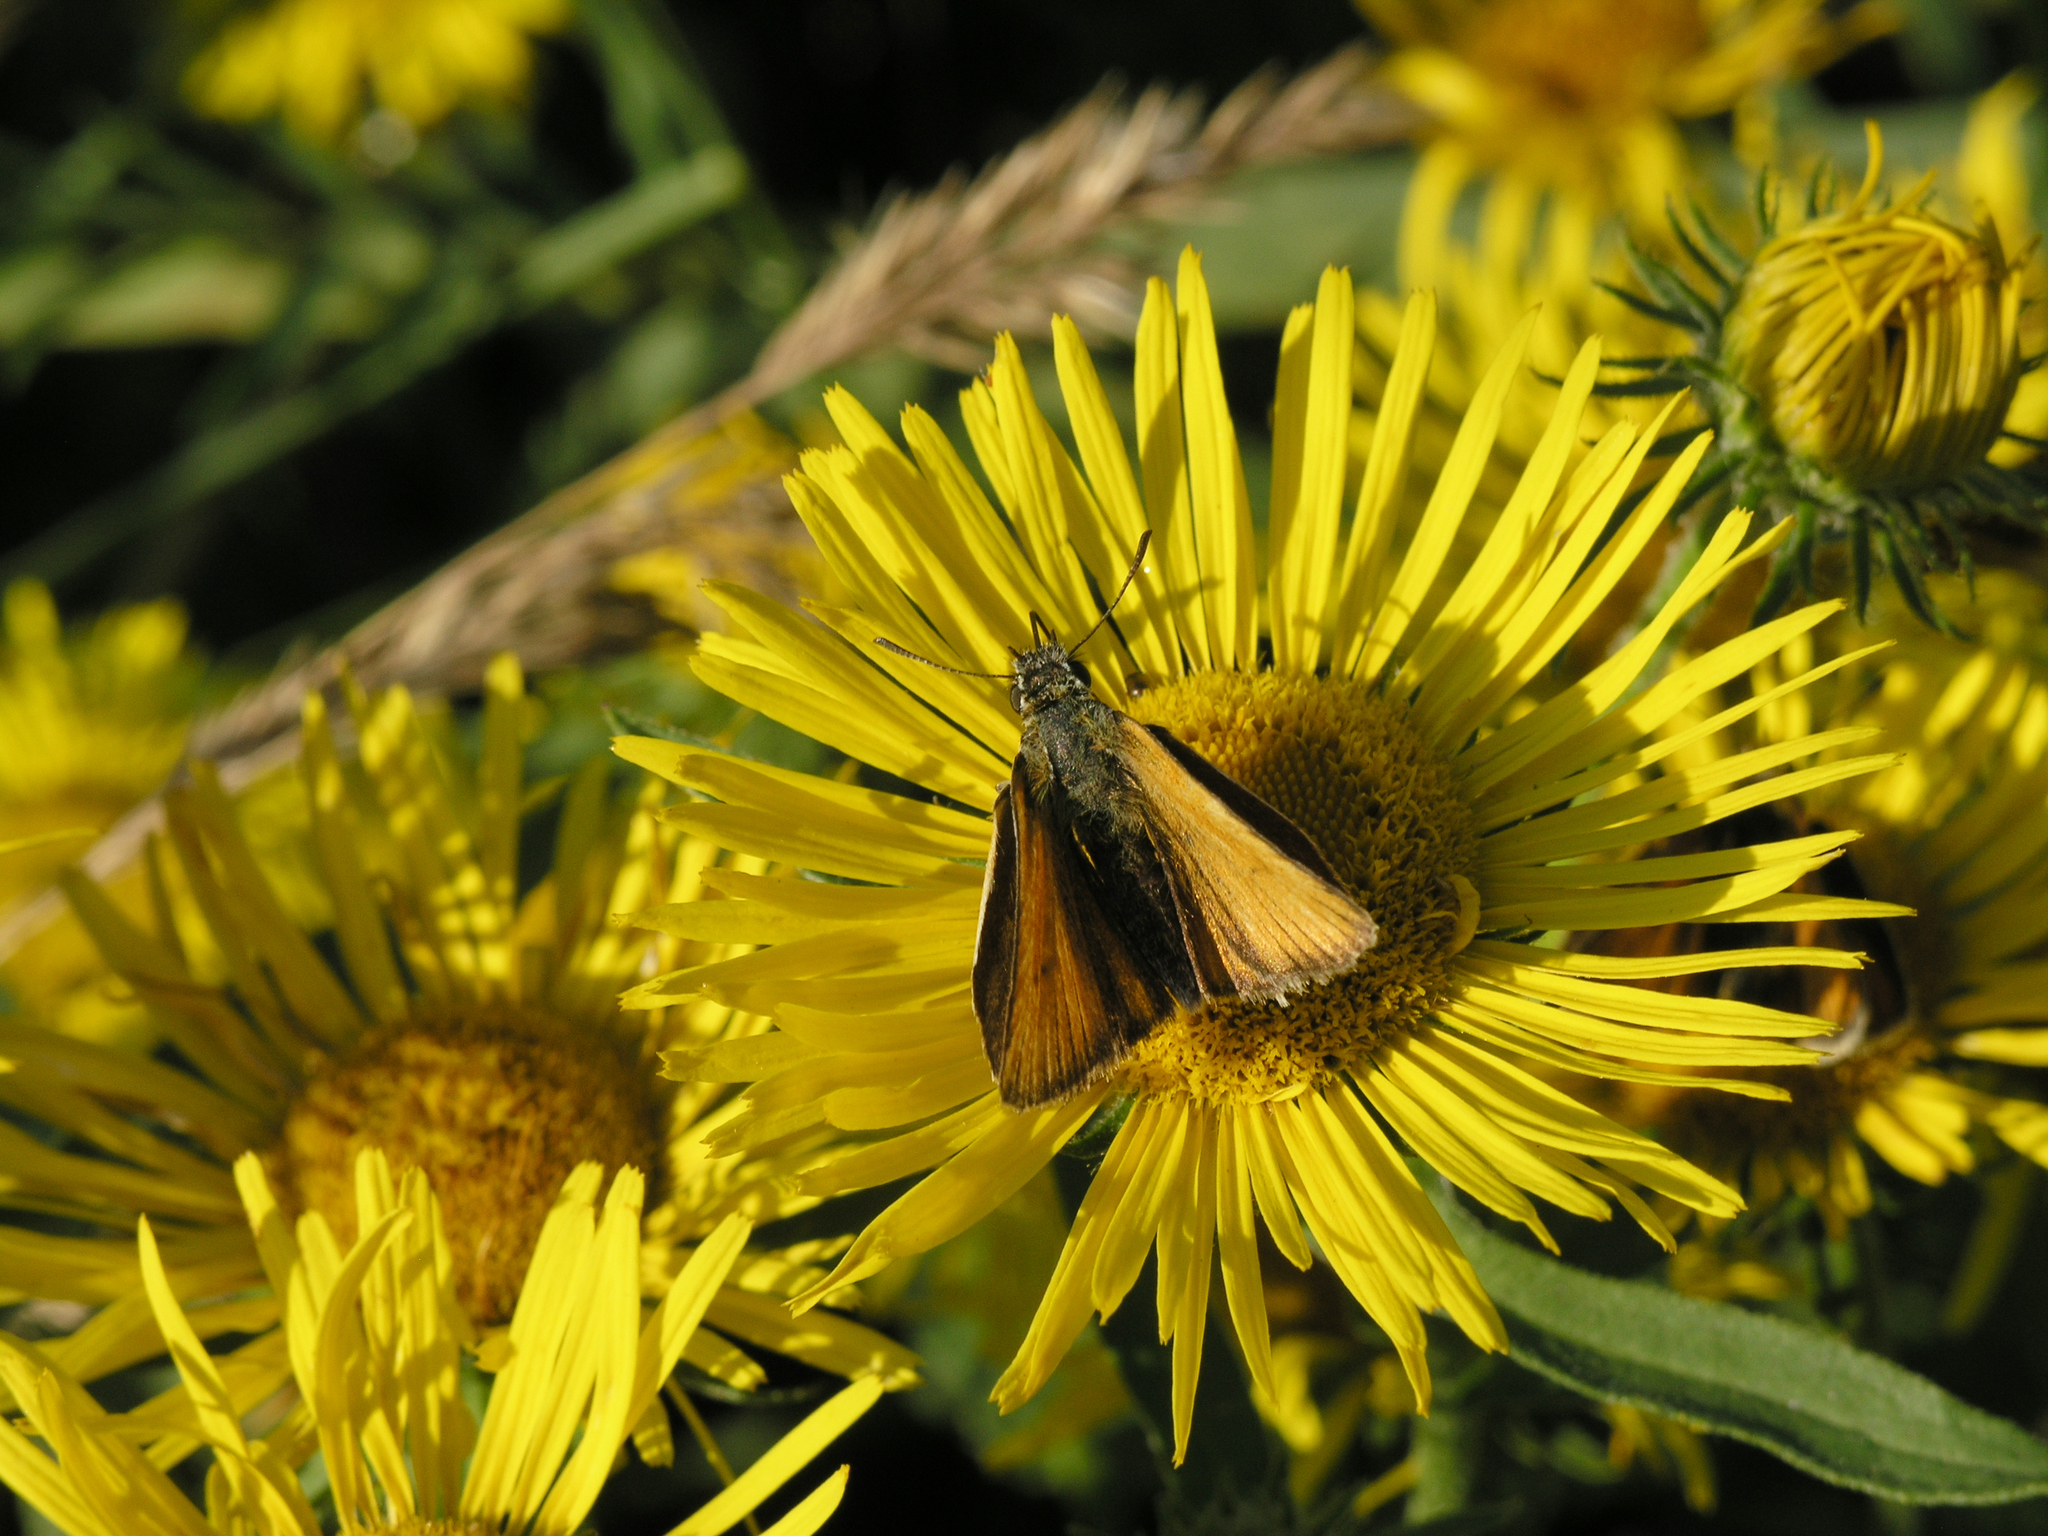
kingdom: Plantae
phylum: Tracheophyta
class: Magnoliopsida
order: Asterales
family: Asteraceae
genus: Pentanema
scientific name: Pentanema britannicum
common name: British elecampane
